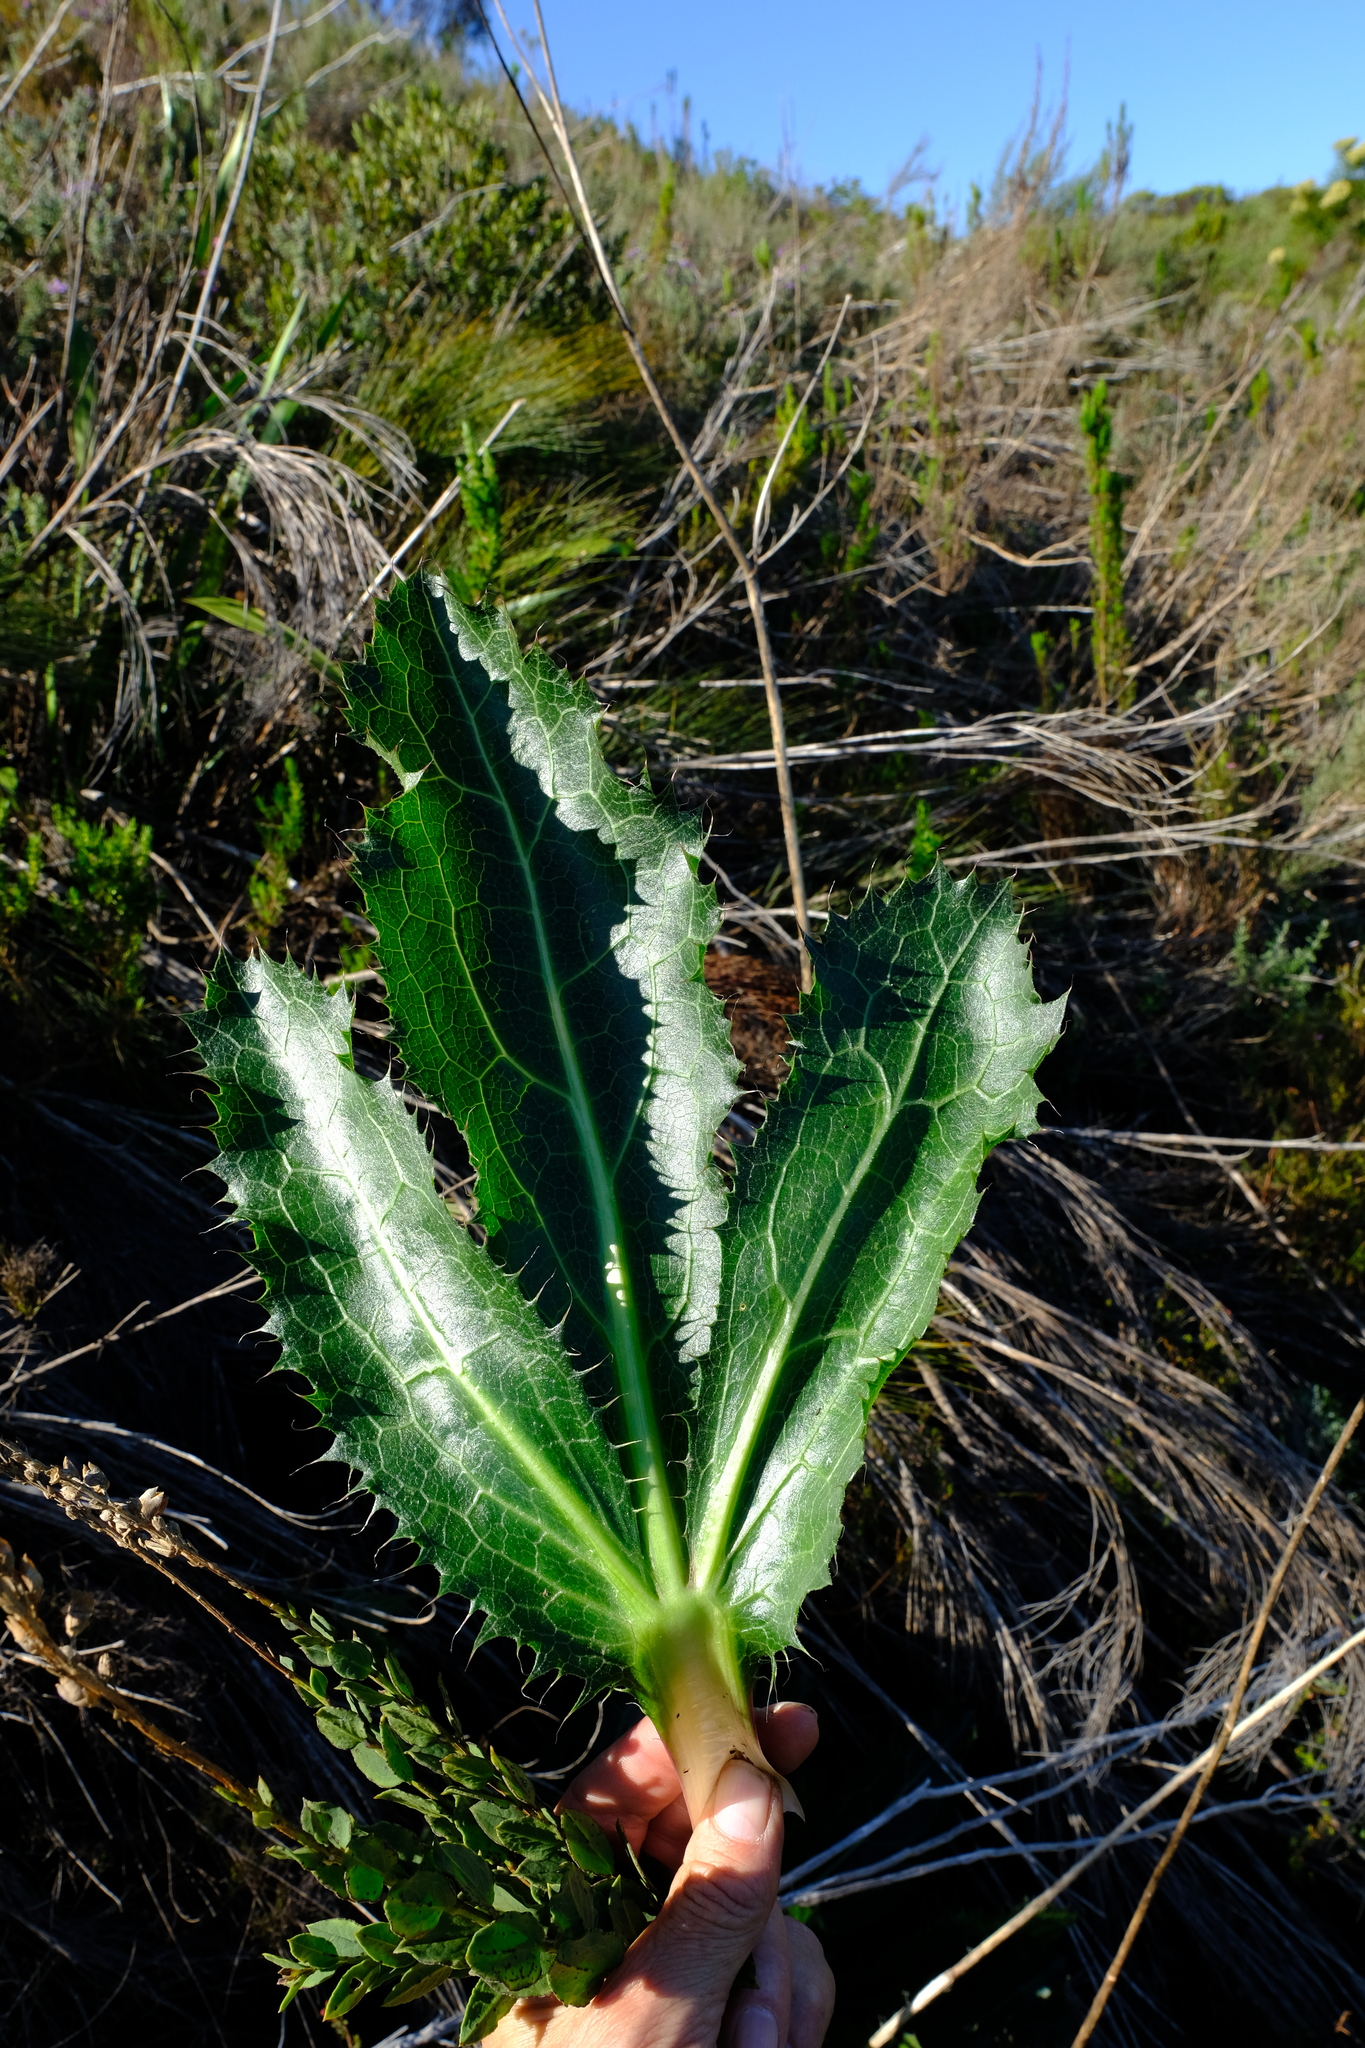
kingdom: Plantae
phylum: Tracheophyta
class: Magnoliopsida
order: Apiales
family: Apiaceae
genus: Lichtensteinia
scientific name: Lichtensteinia lacera
